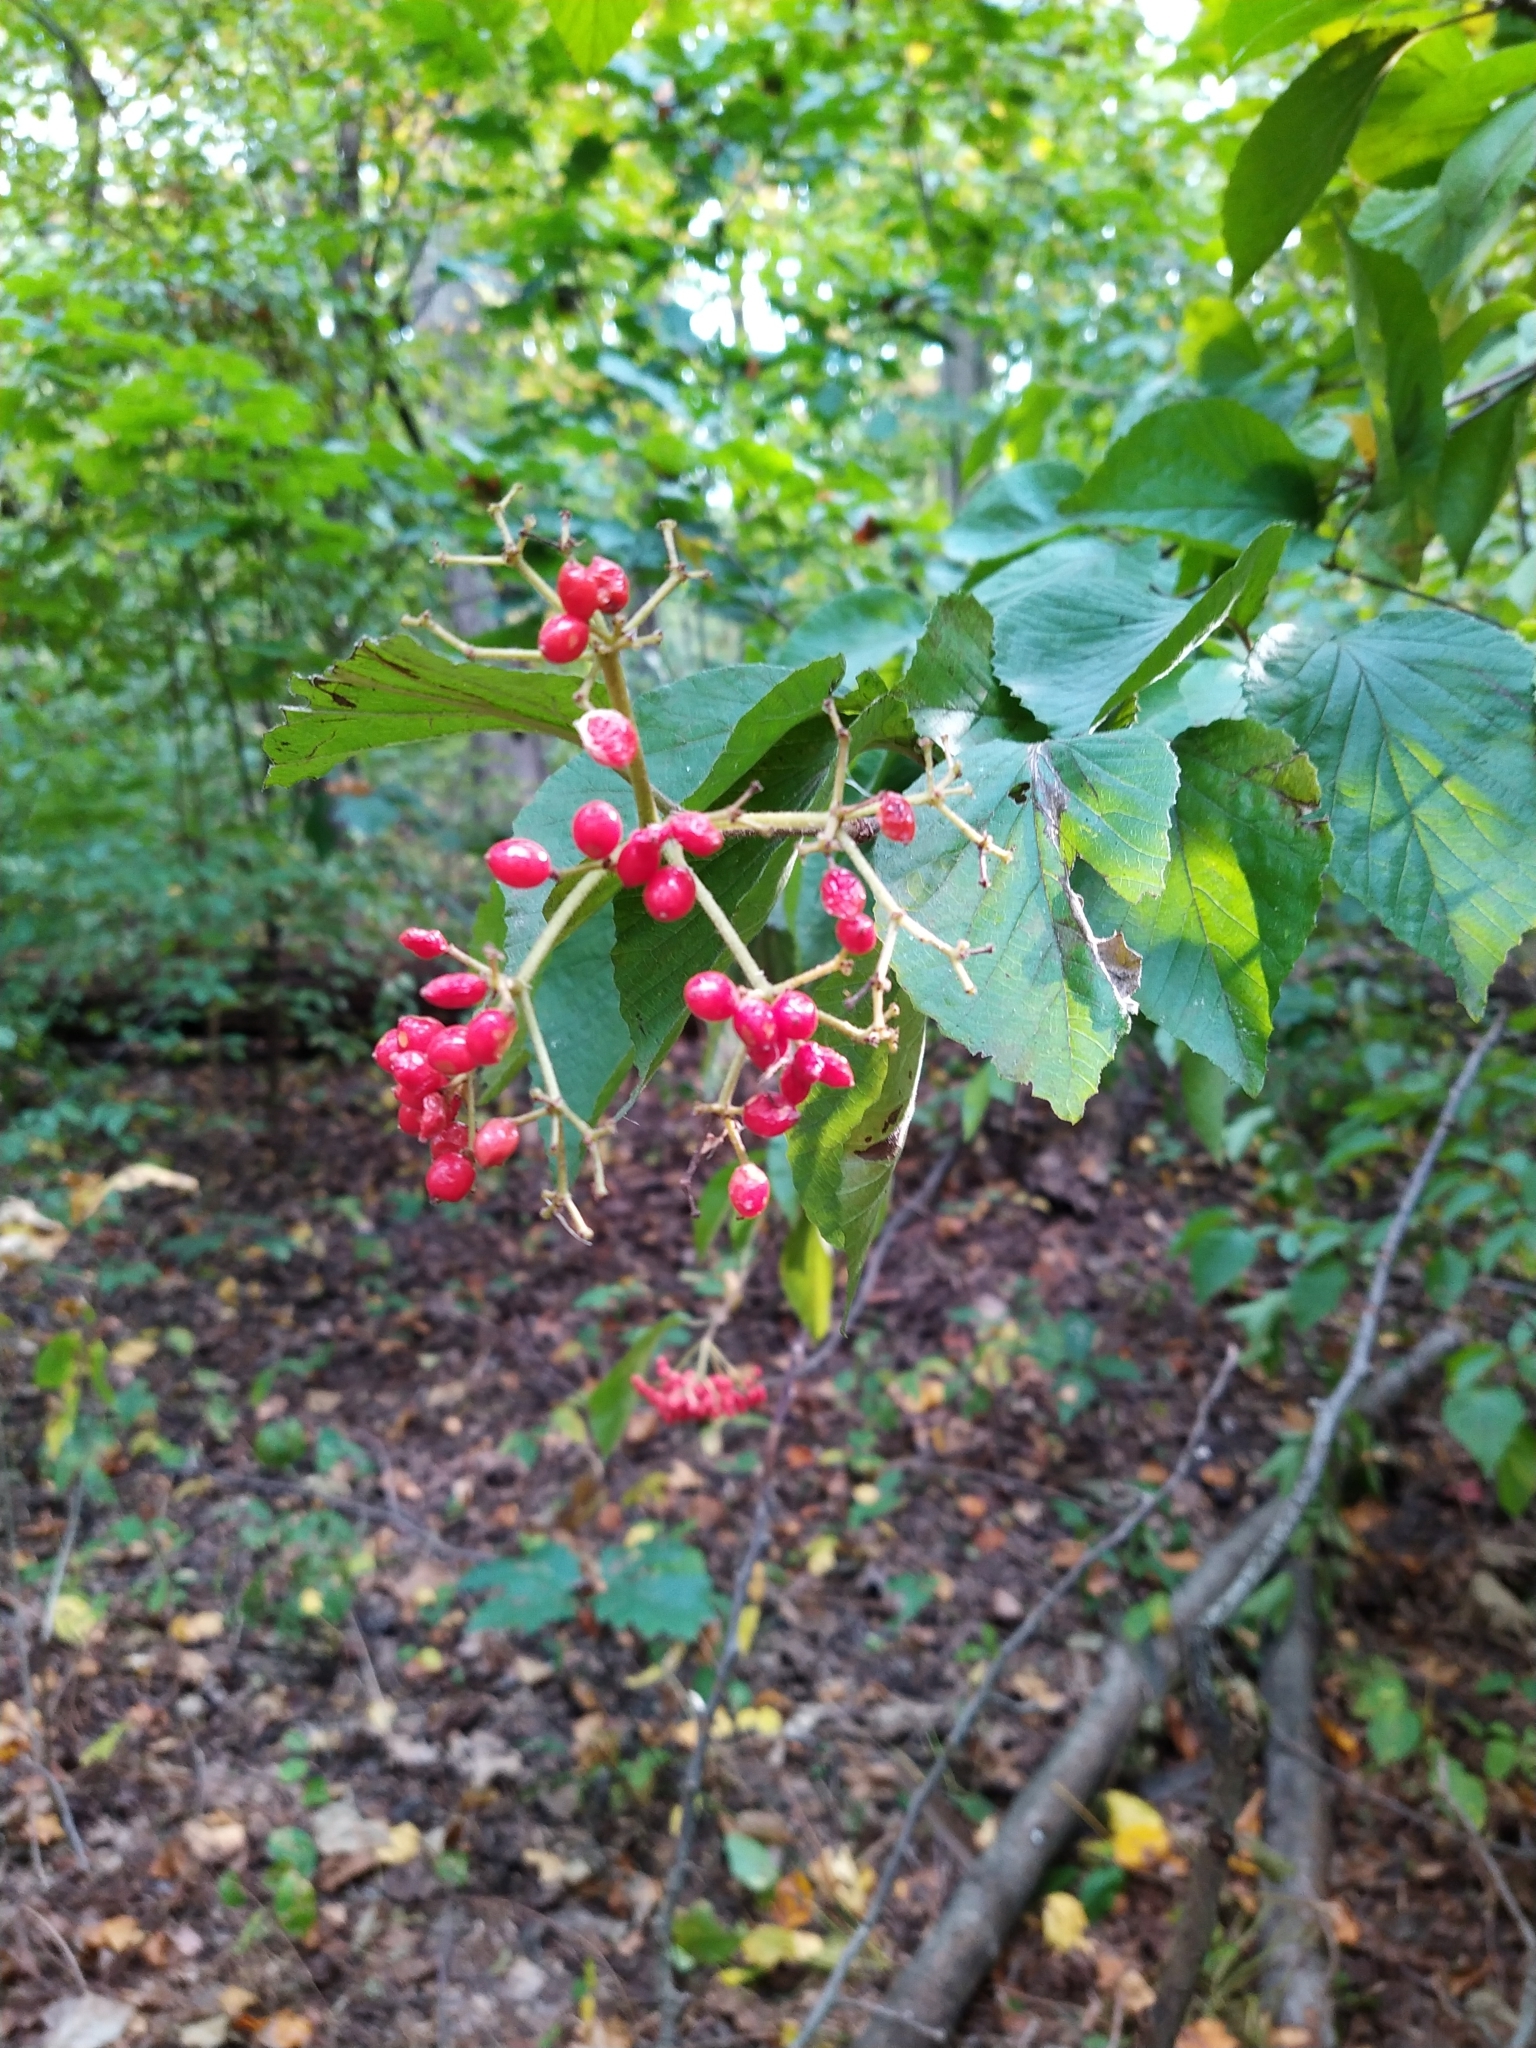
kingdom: Plantae
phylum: Tracheophyta
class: Magnoliopsida
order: Dipsacales
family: Viburnaceae
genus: Viburnum
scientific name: Viburnum dilatatum
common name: Linden arrowwood
